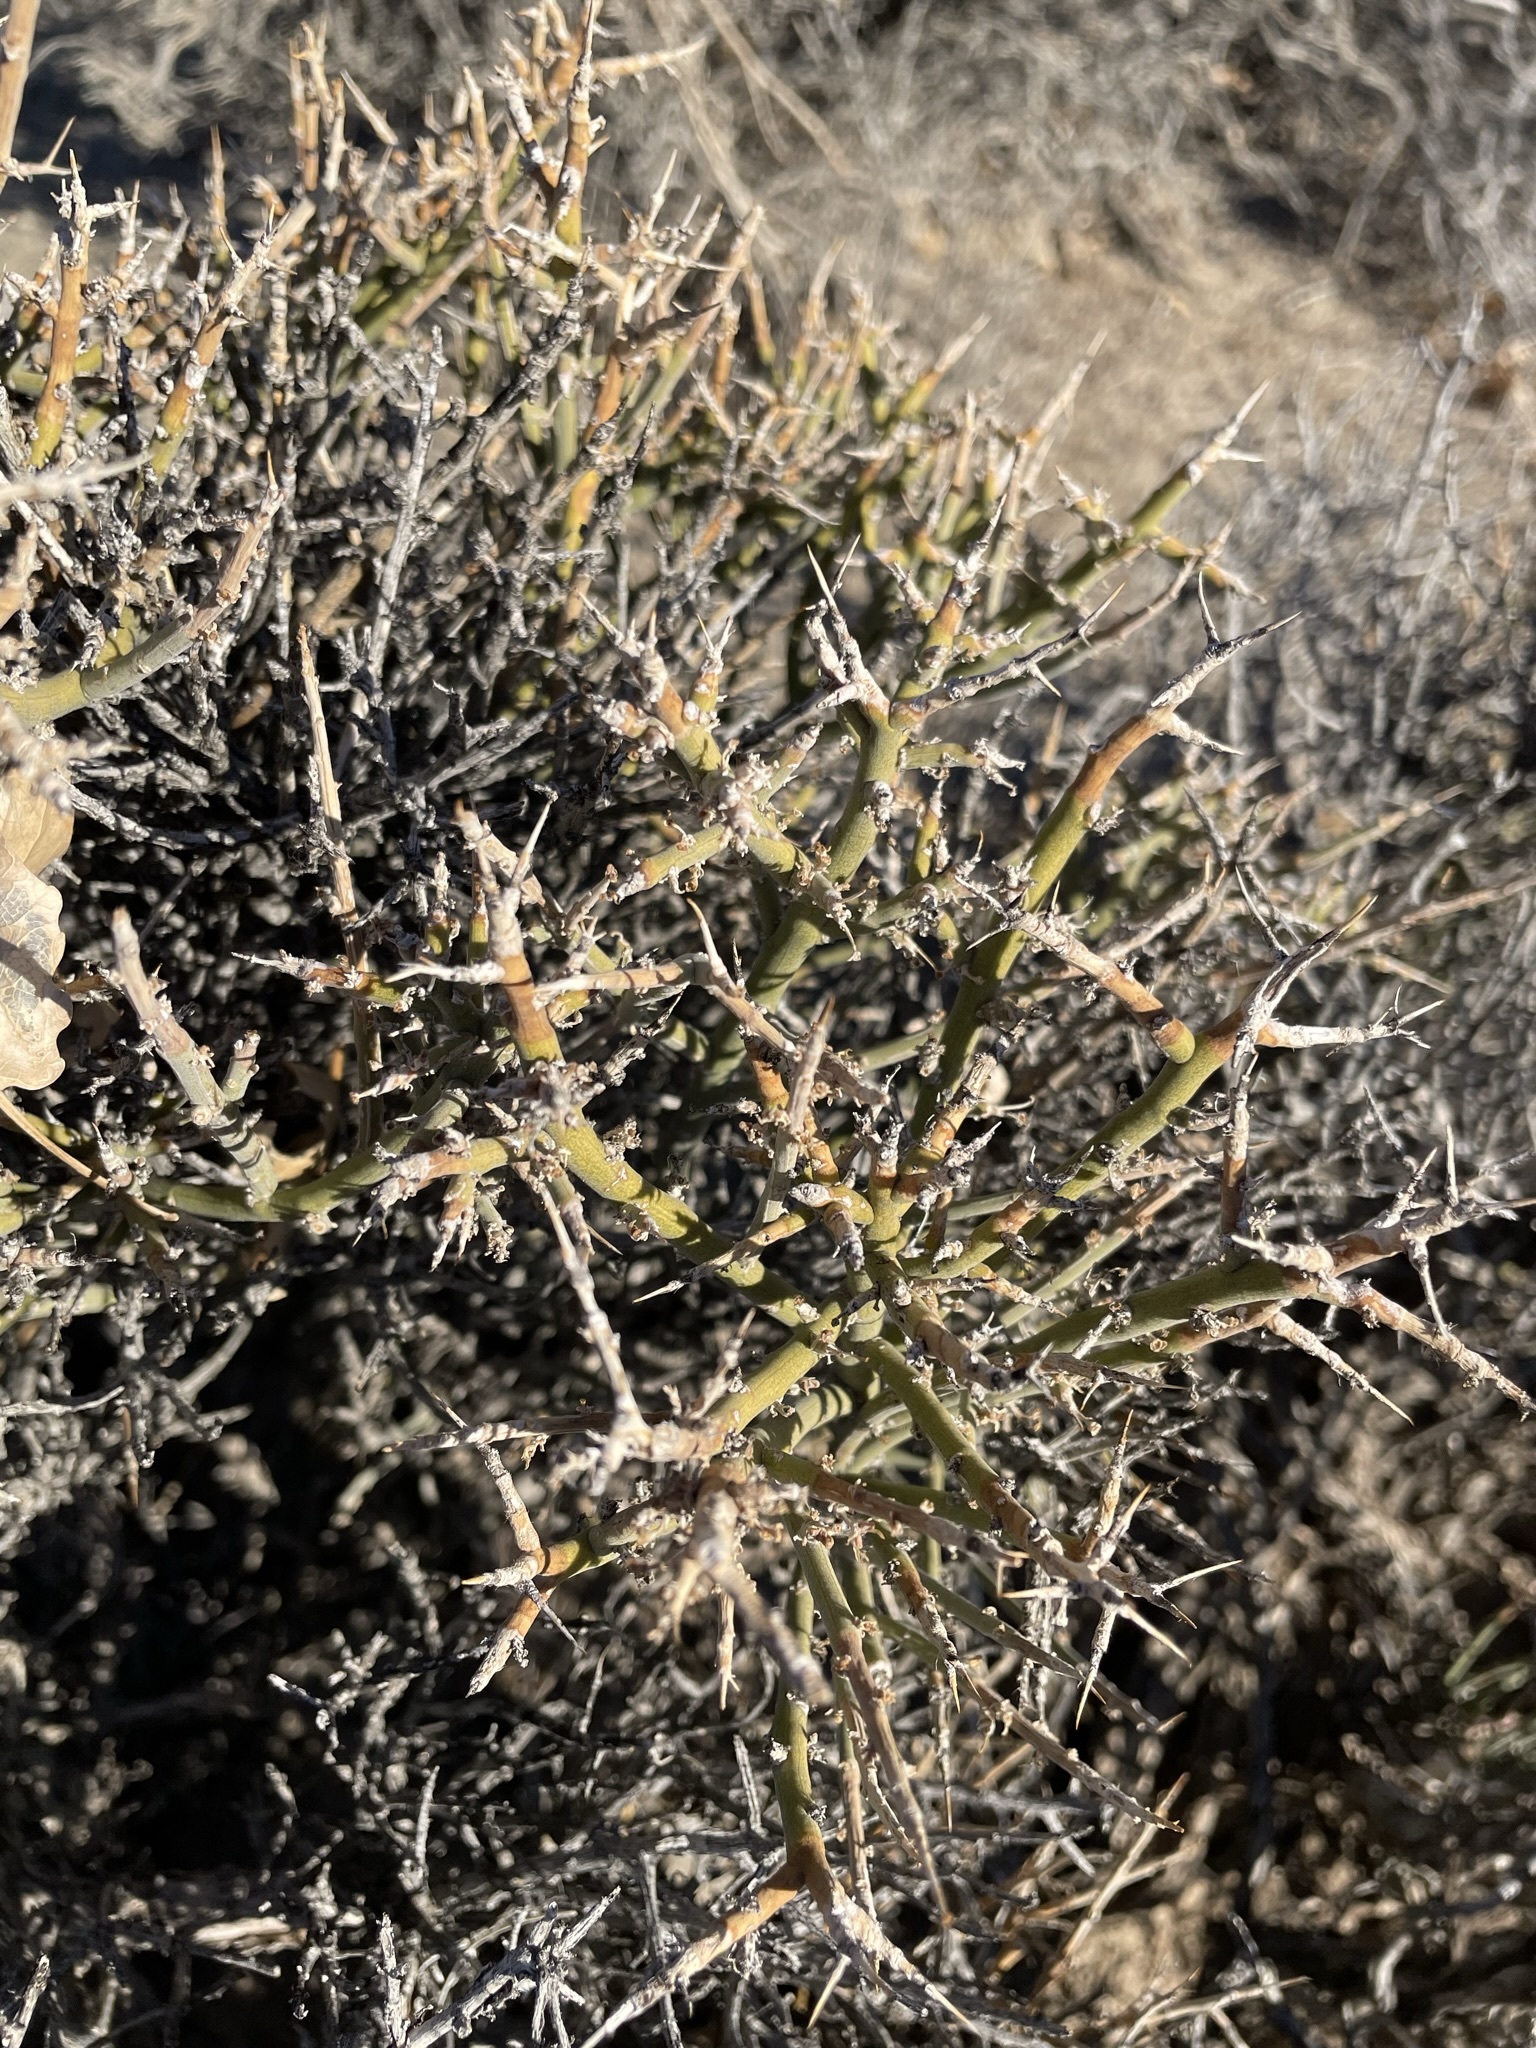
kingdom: Plantae
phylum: Tracheophyta
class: Magnoliopsida
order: Lamiales
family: Oleaceae
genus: Menodora
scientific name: Menodora spinescens
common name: Spiny menodora
